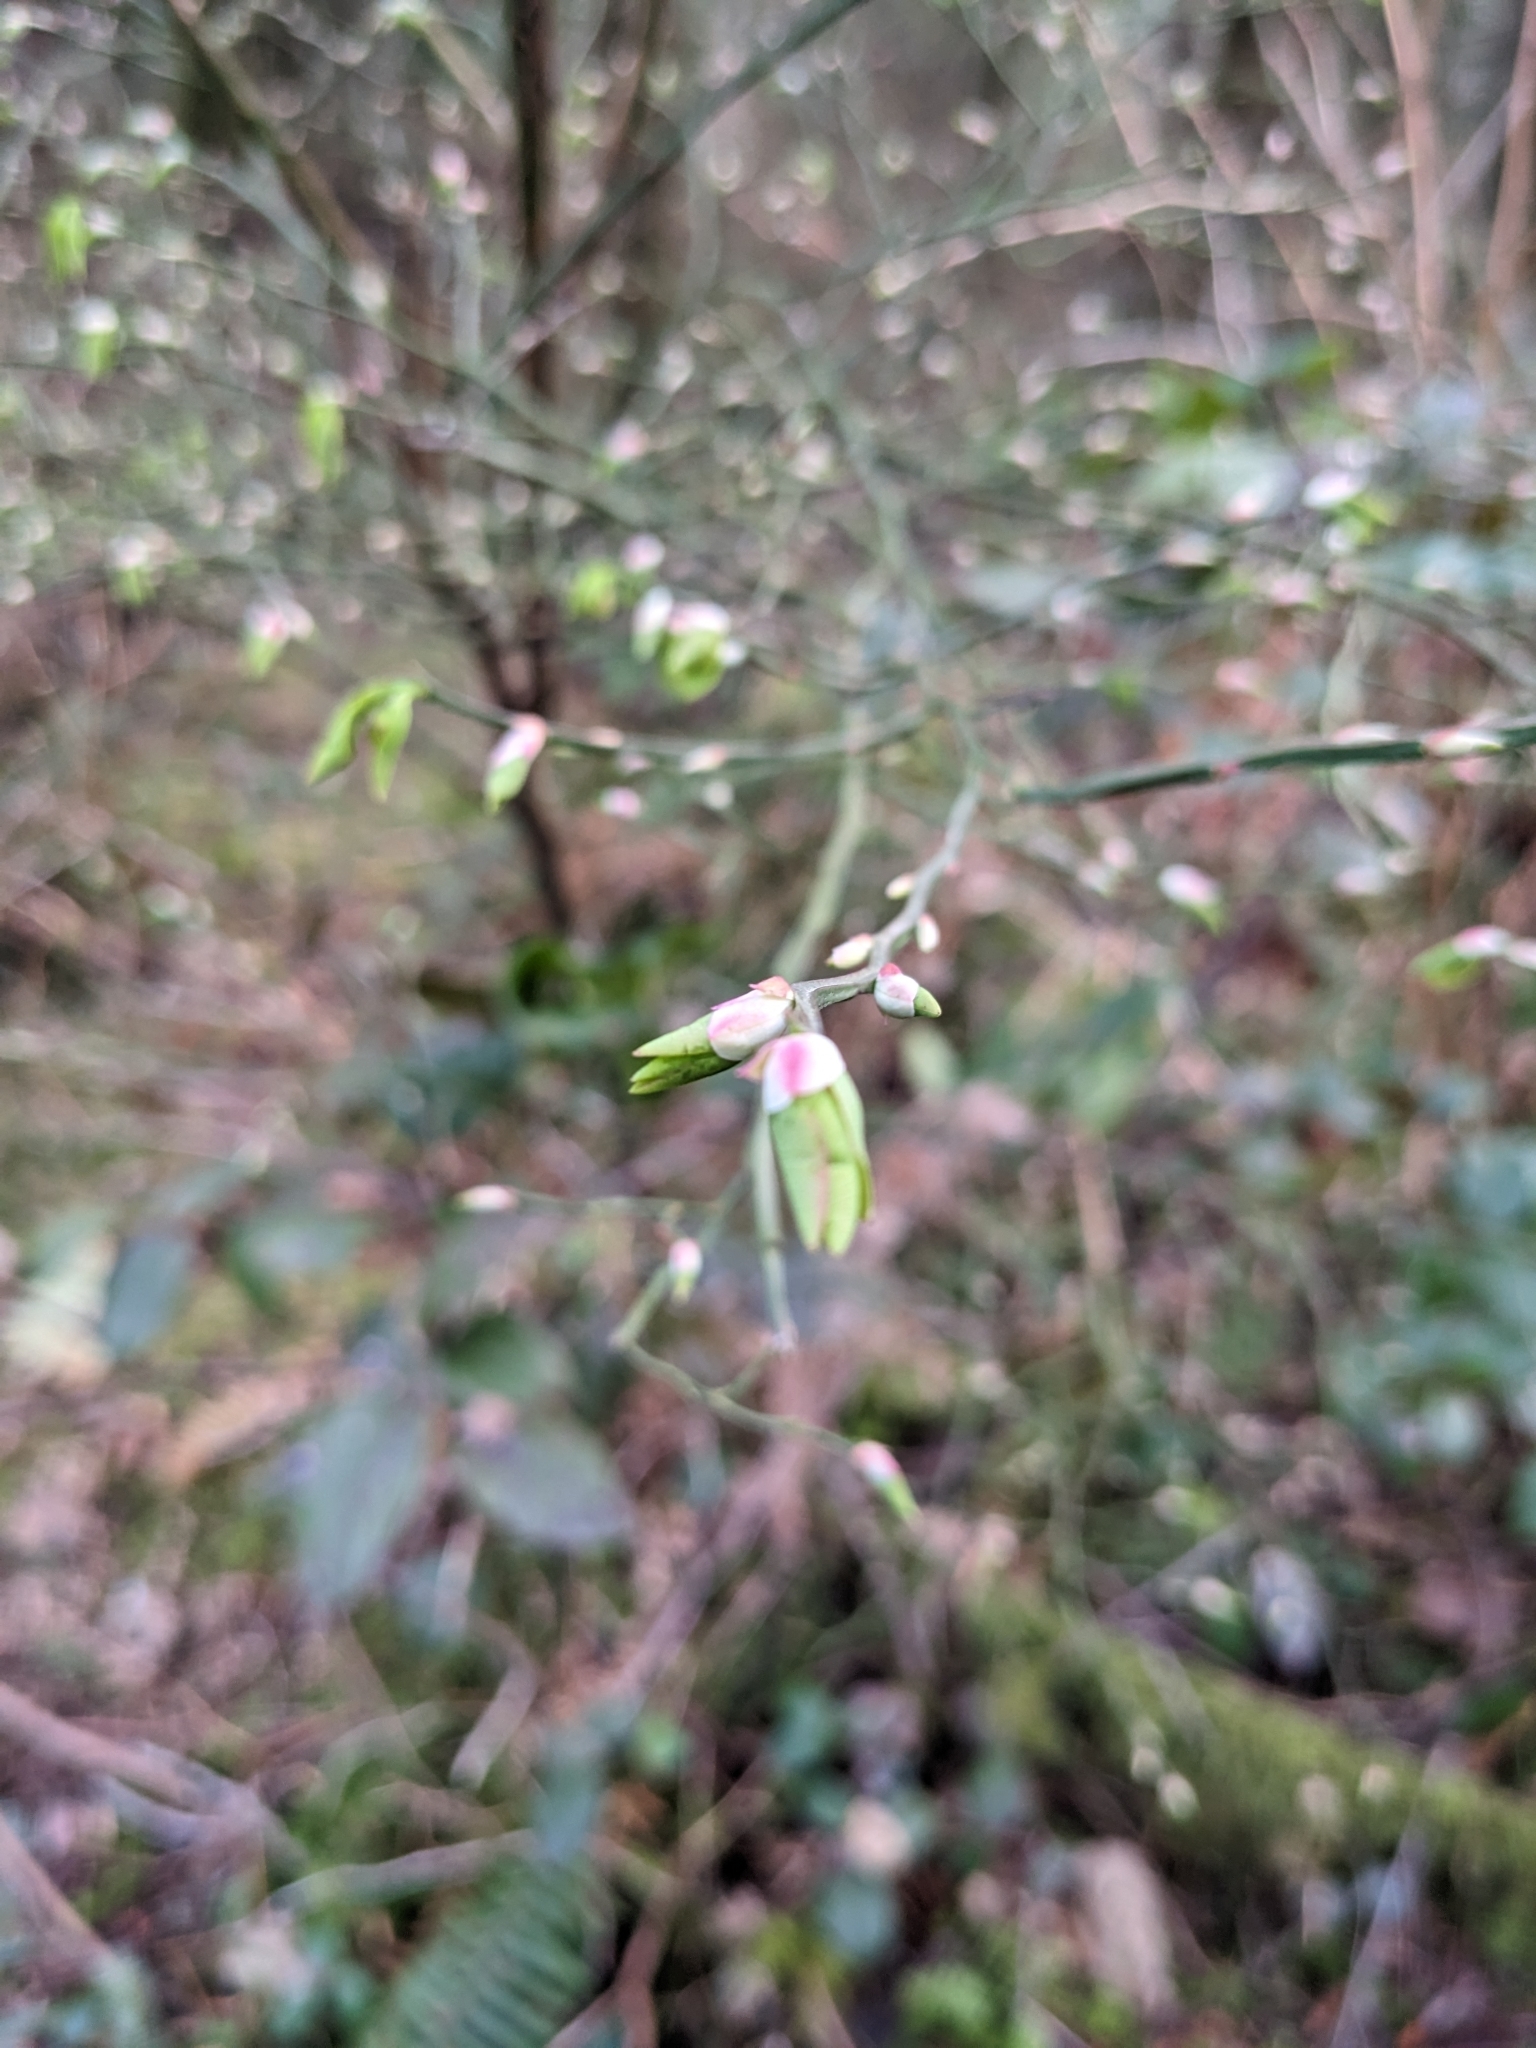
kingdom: Plantae
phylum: Tracheophyta
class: Magnoliopsida
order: Ericales
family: Ericaceae
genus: Vaccinium
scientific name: Vaccinium parvifolium
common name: Red-huckleberry
